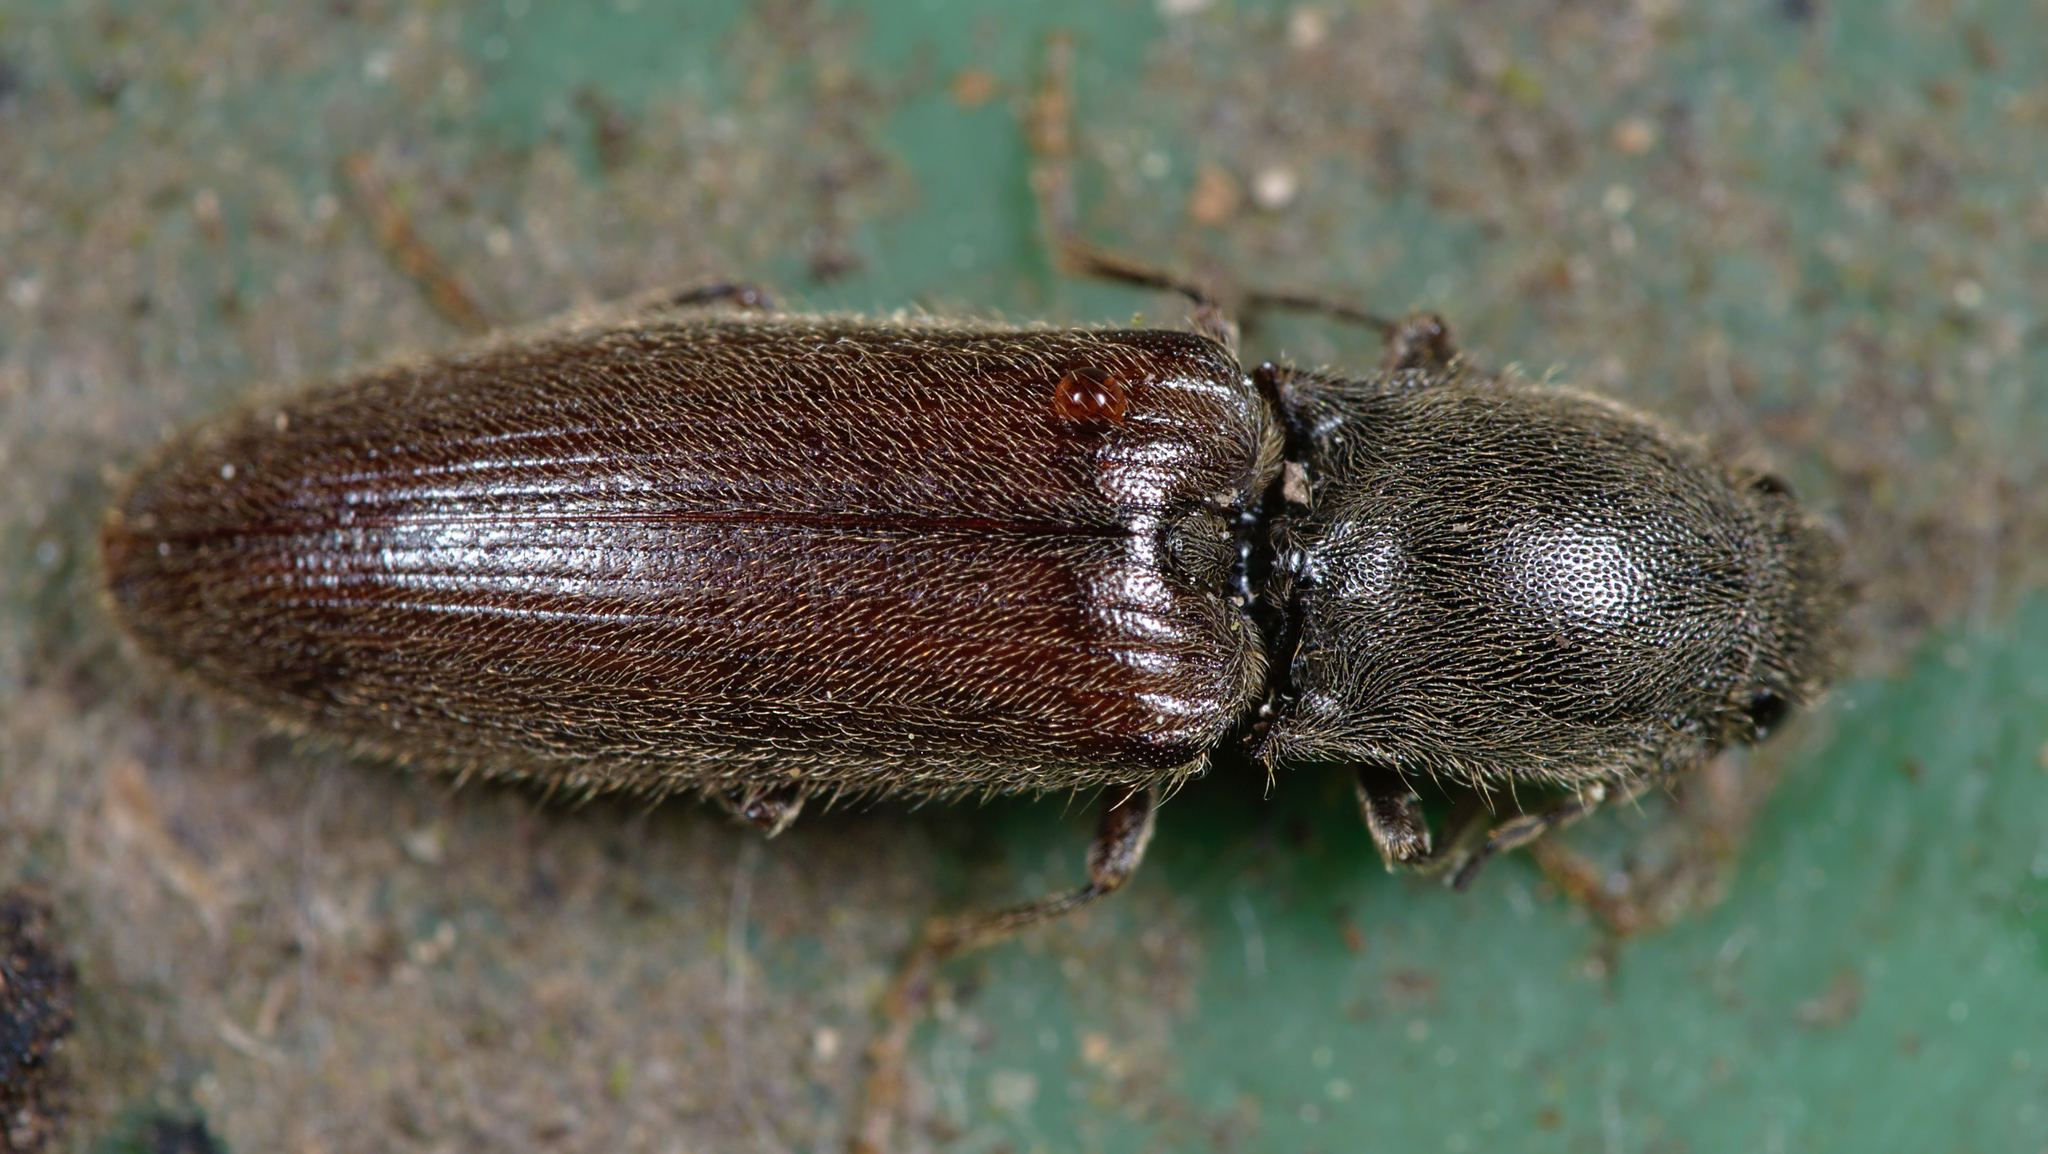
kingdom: Animalia
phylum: Arthropoda
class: Insecta
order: Coleoptera
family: Elateridae
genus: Athous
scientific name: Athous haemorrhoidalis
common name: Red-brown click beetle
